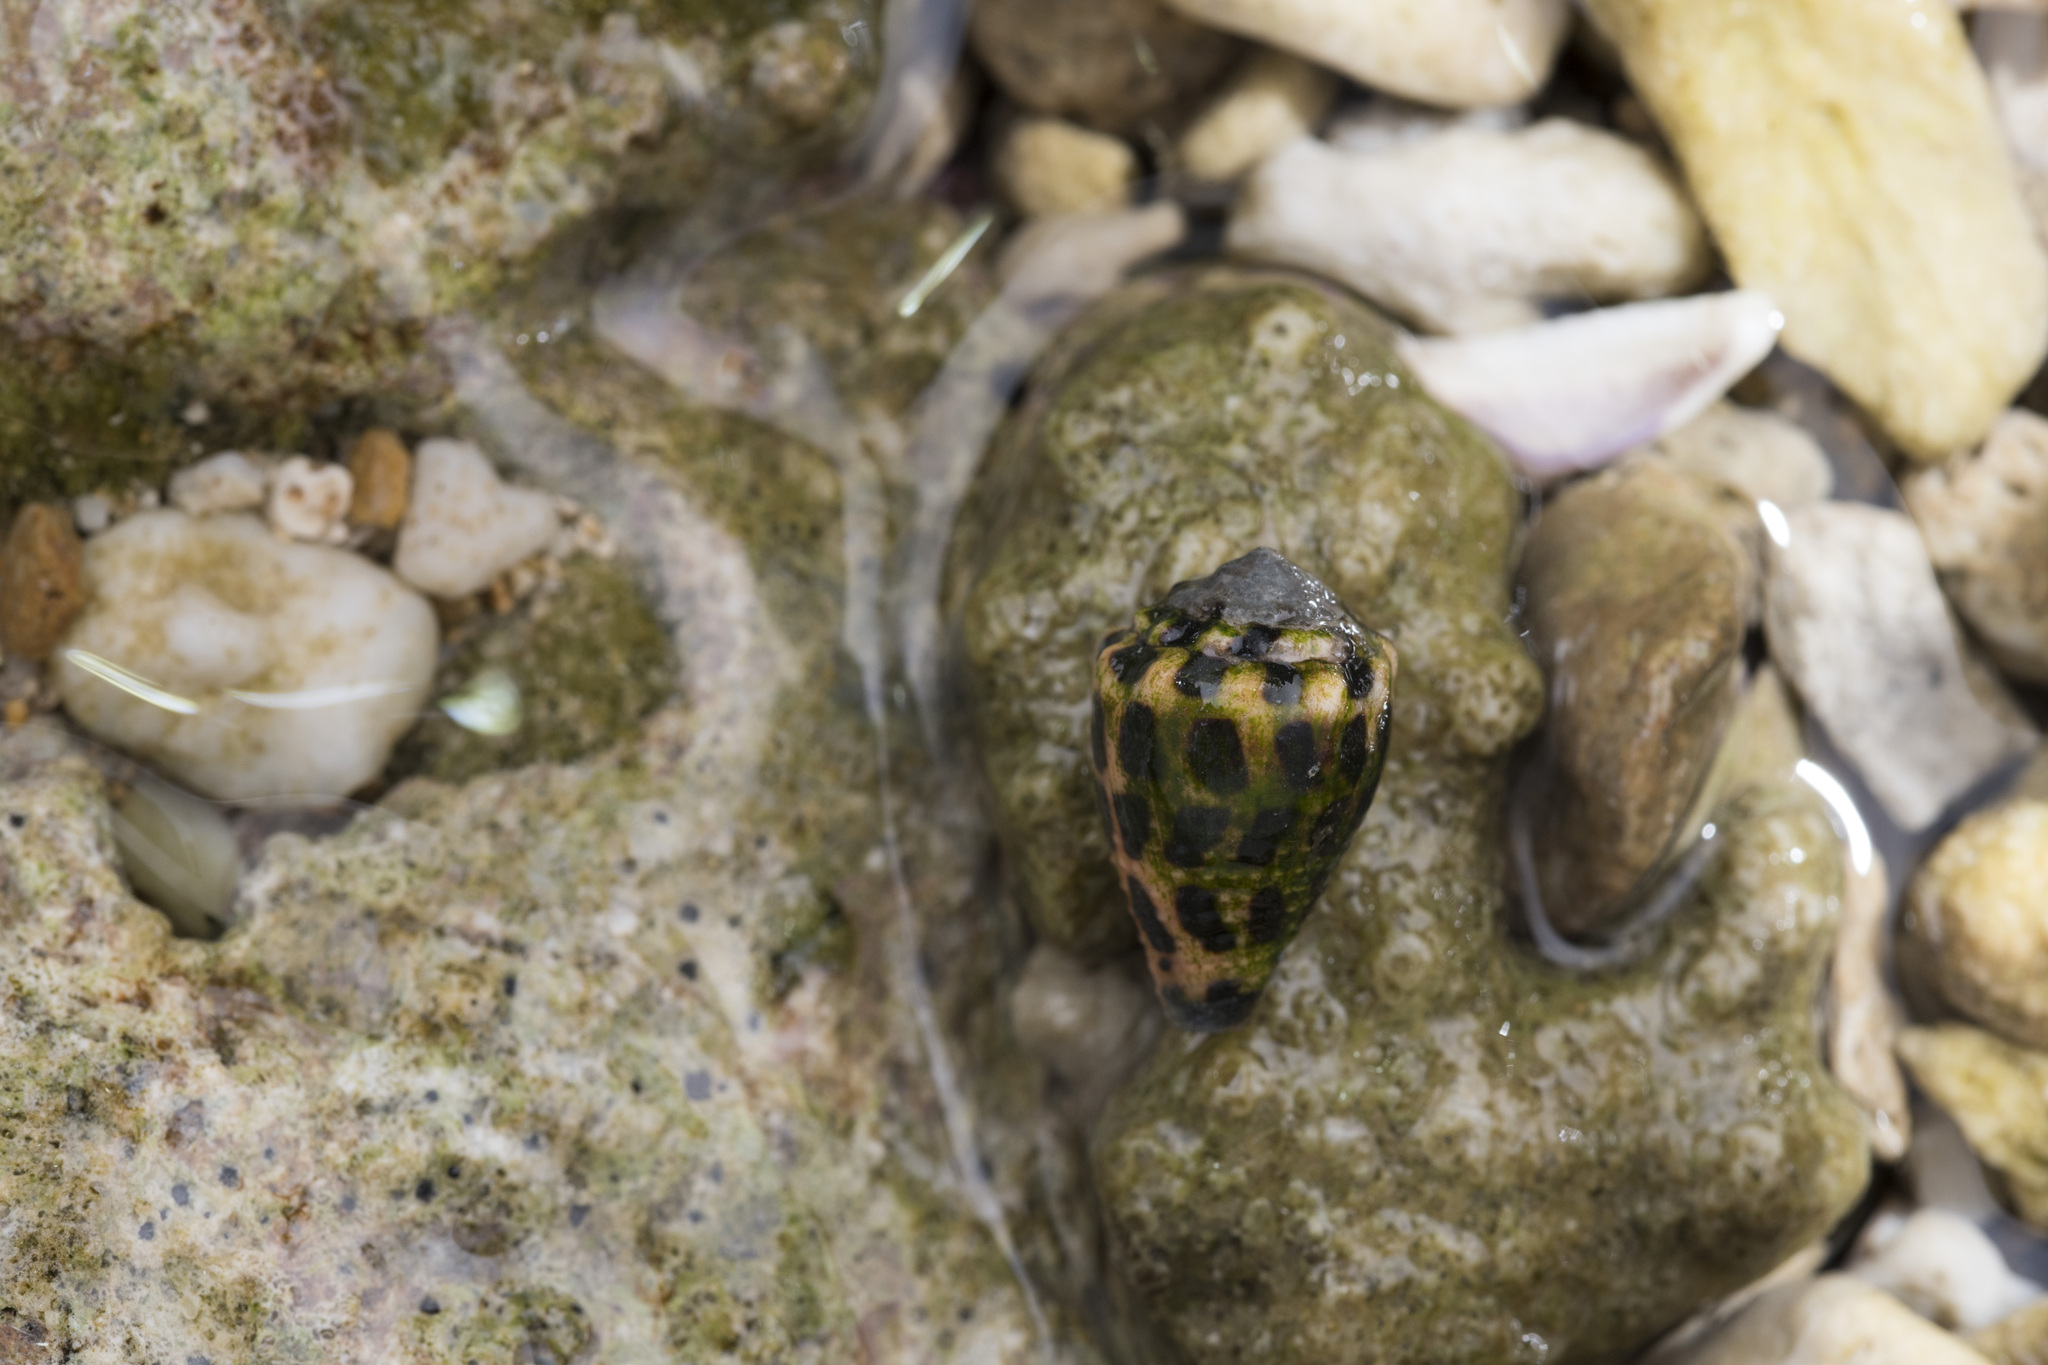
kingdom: Animalia
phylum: Mollusca
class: Gastropoda
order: Neogastropoda
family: Conidae
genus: Conus
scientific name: Conus ebraeus
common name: Hebrew cone
